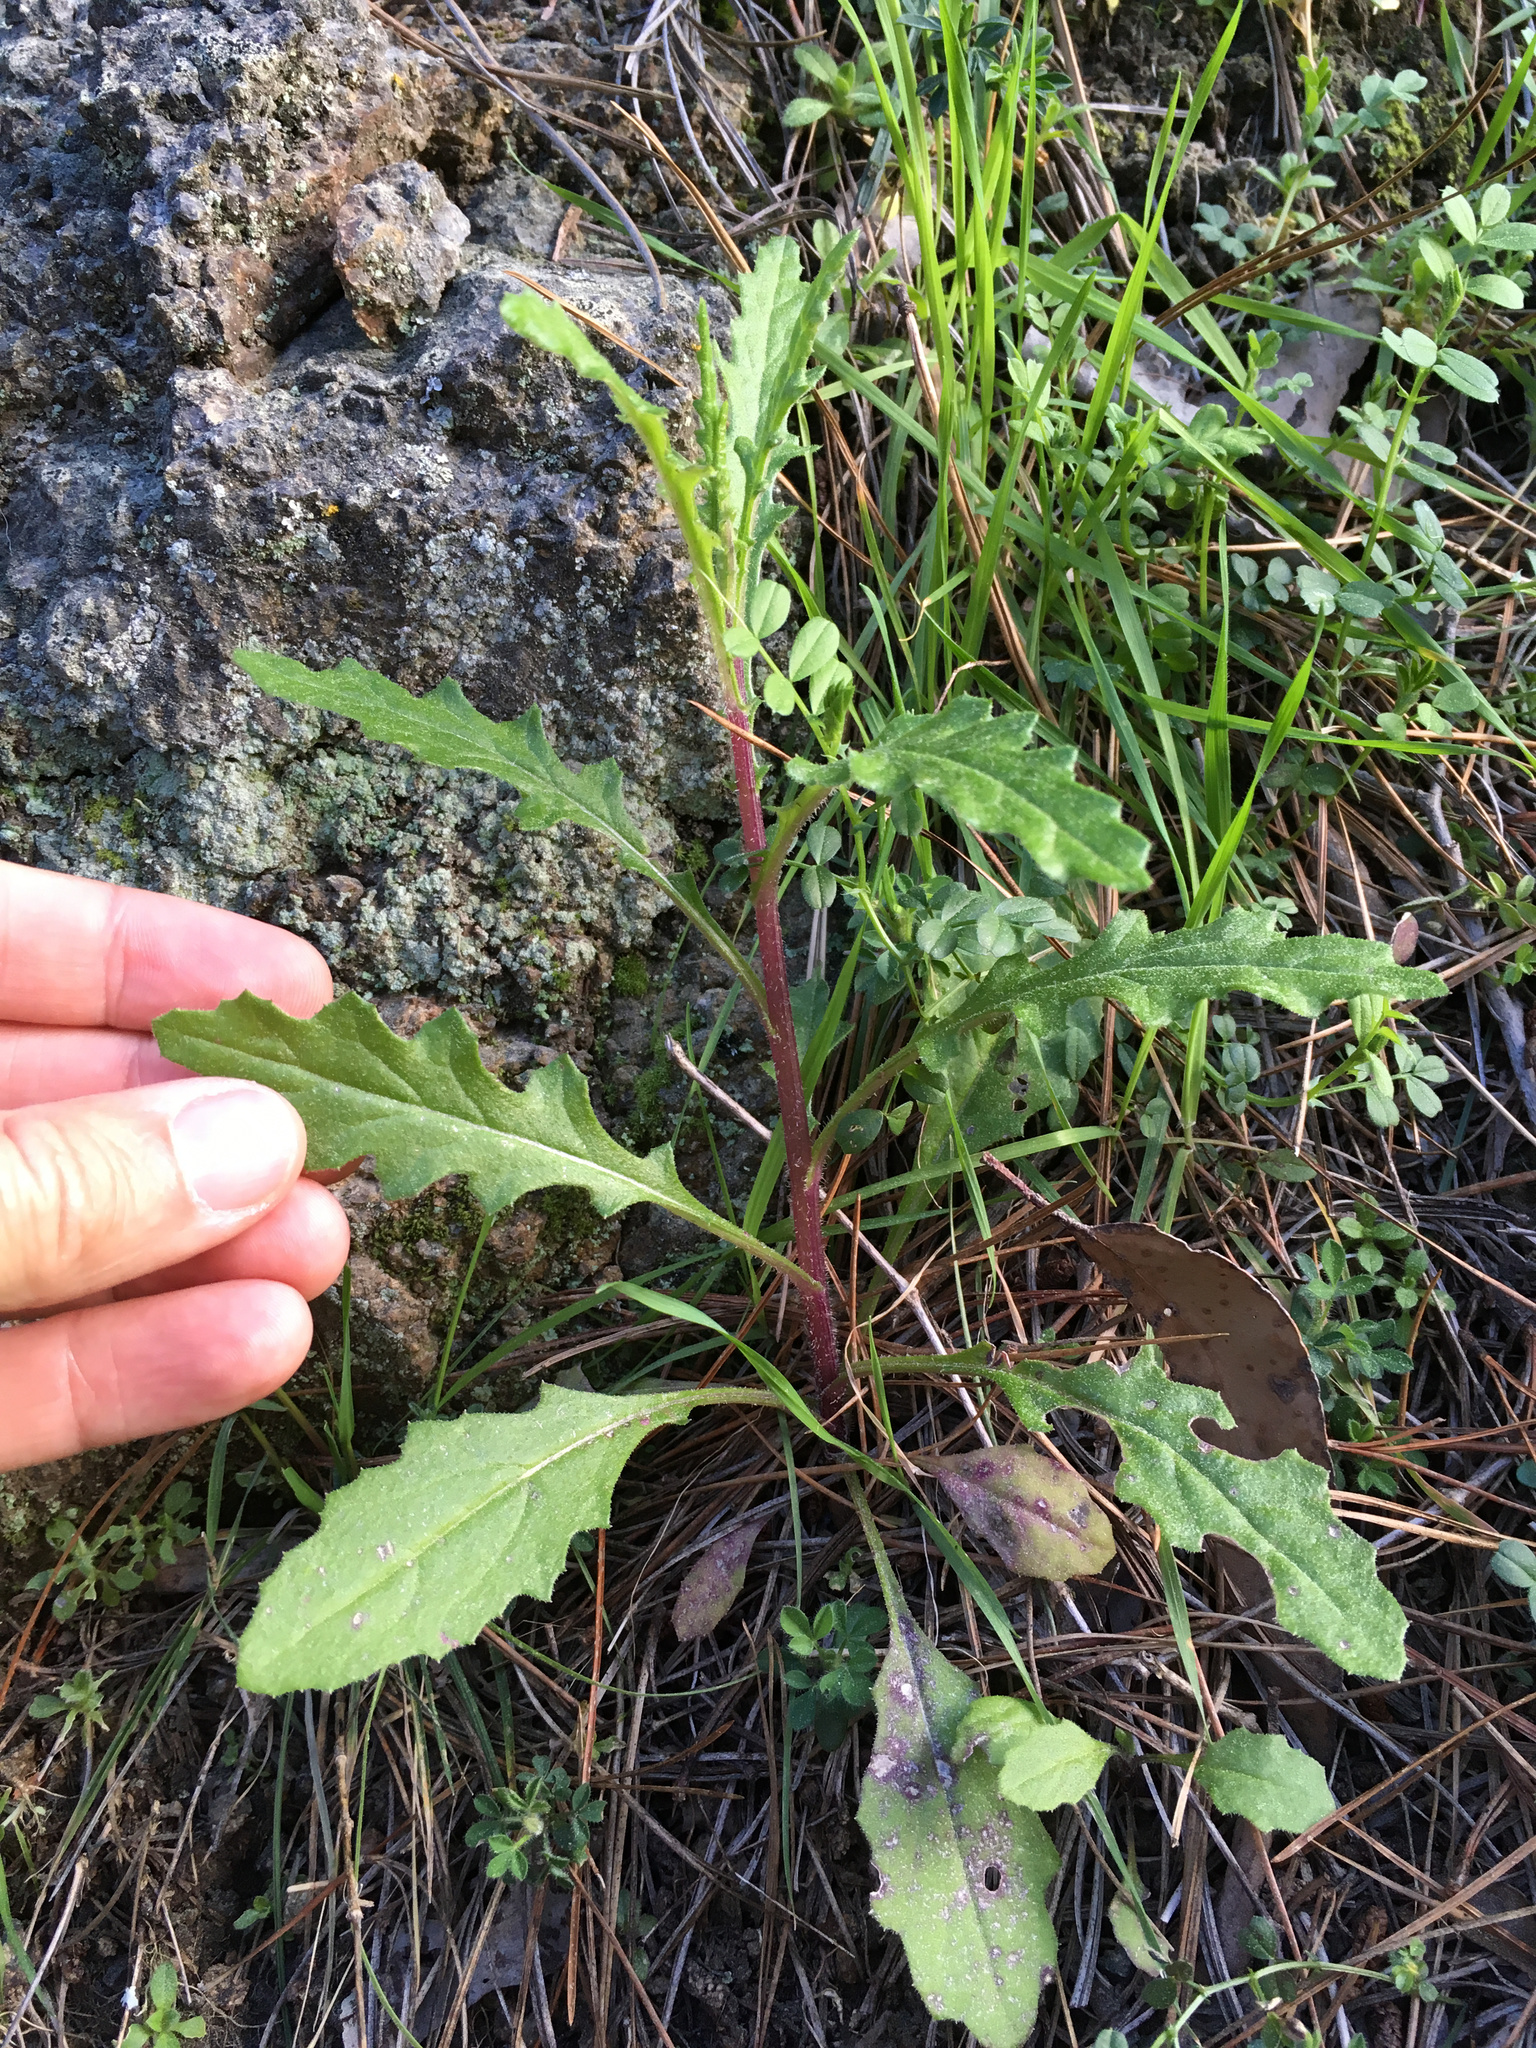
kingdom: Plantae
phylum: Tracheophyta
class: Magnoliopsida
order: Asterales
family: Asteraceae
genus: Senecio
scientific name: Senecio hispidulus
